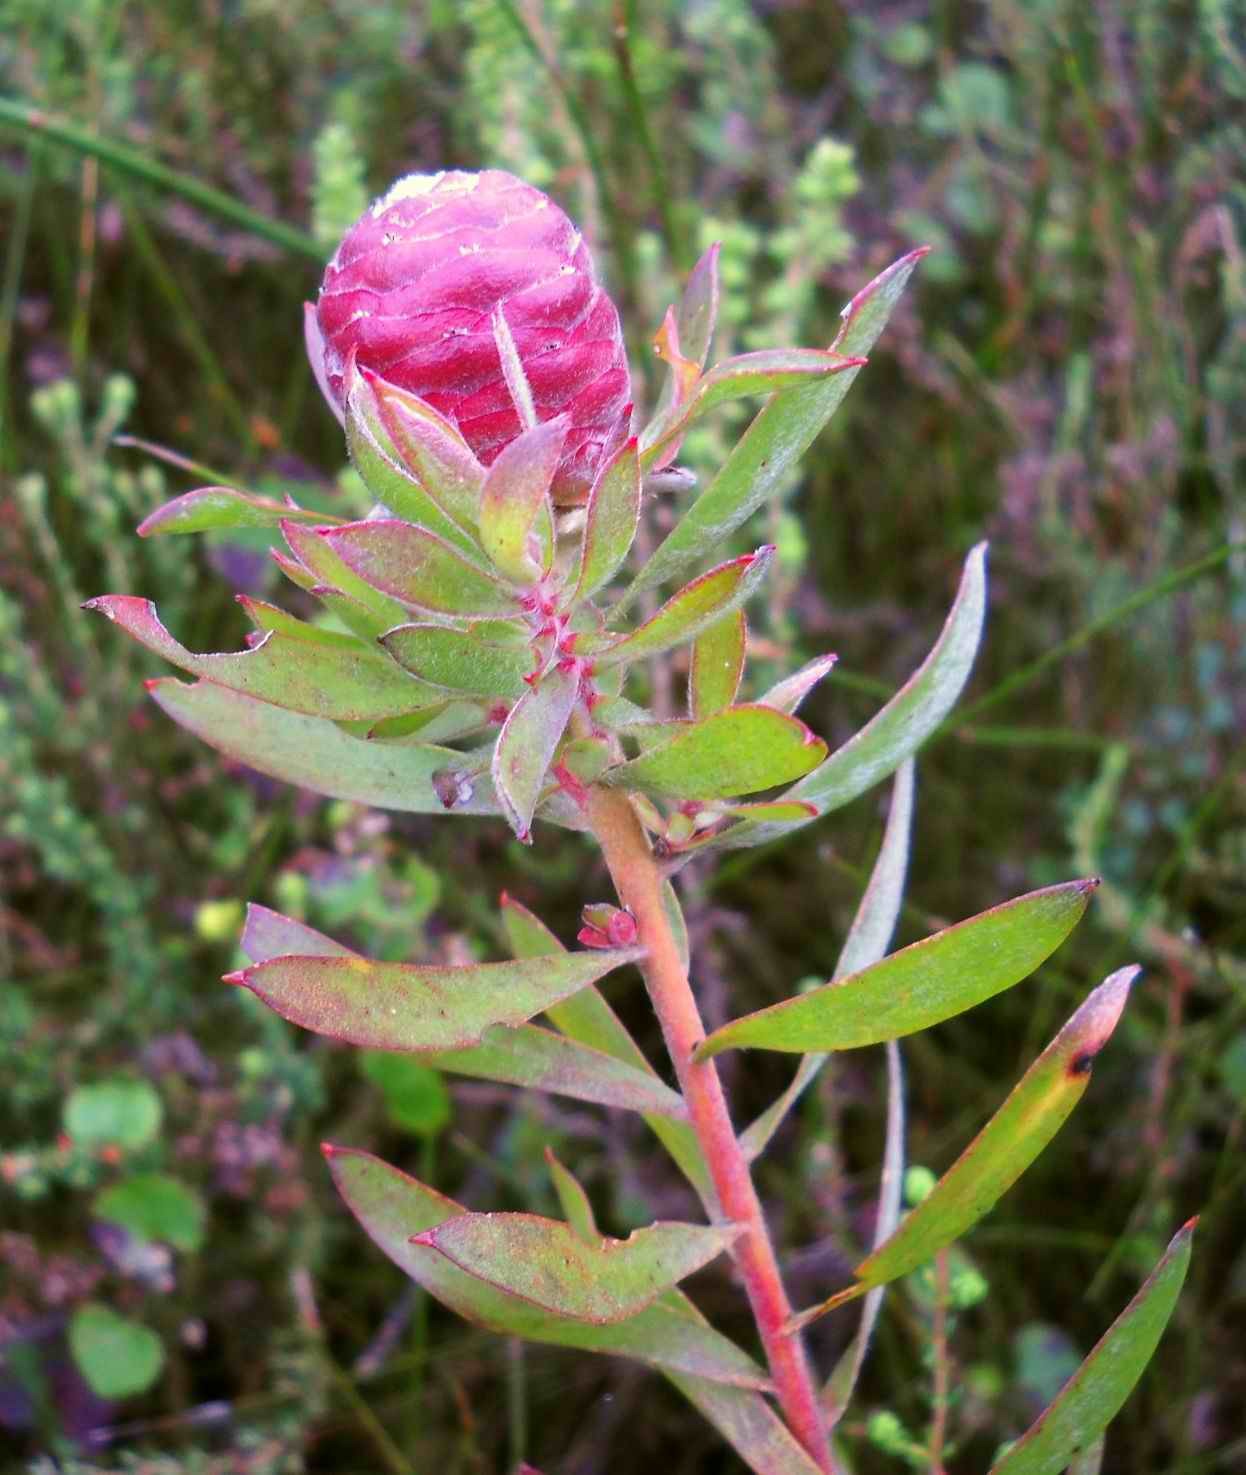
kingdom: Plantae
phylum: Tracheophyta
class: Magnoliopsida
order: Proteales
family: Proteaceae
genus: Leucadendron
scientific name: Leucadendron conicum
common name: Garden route conebush
